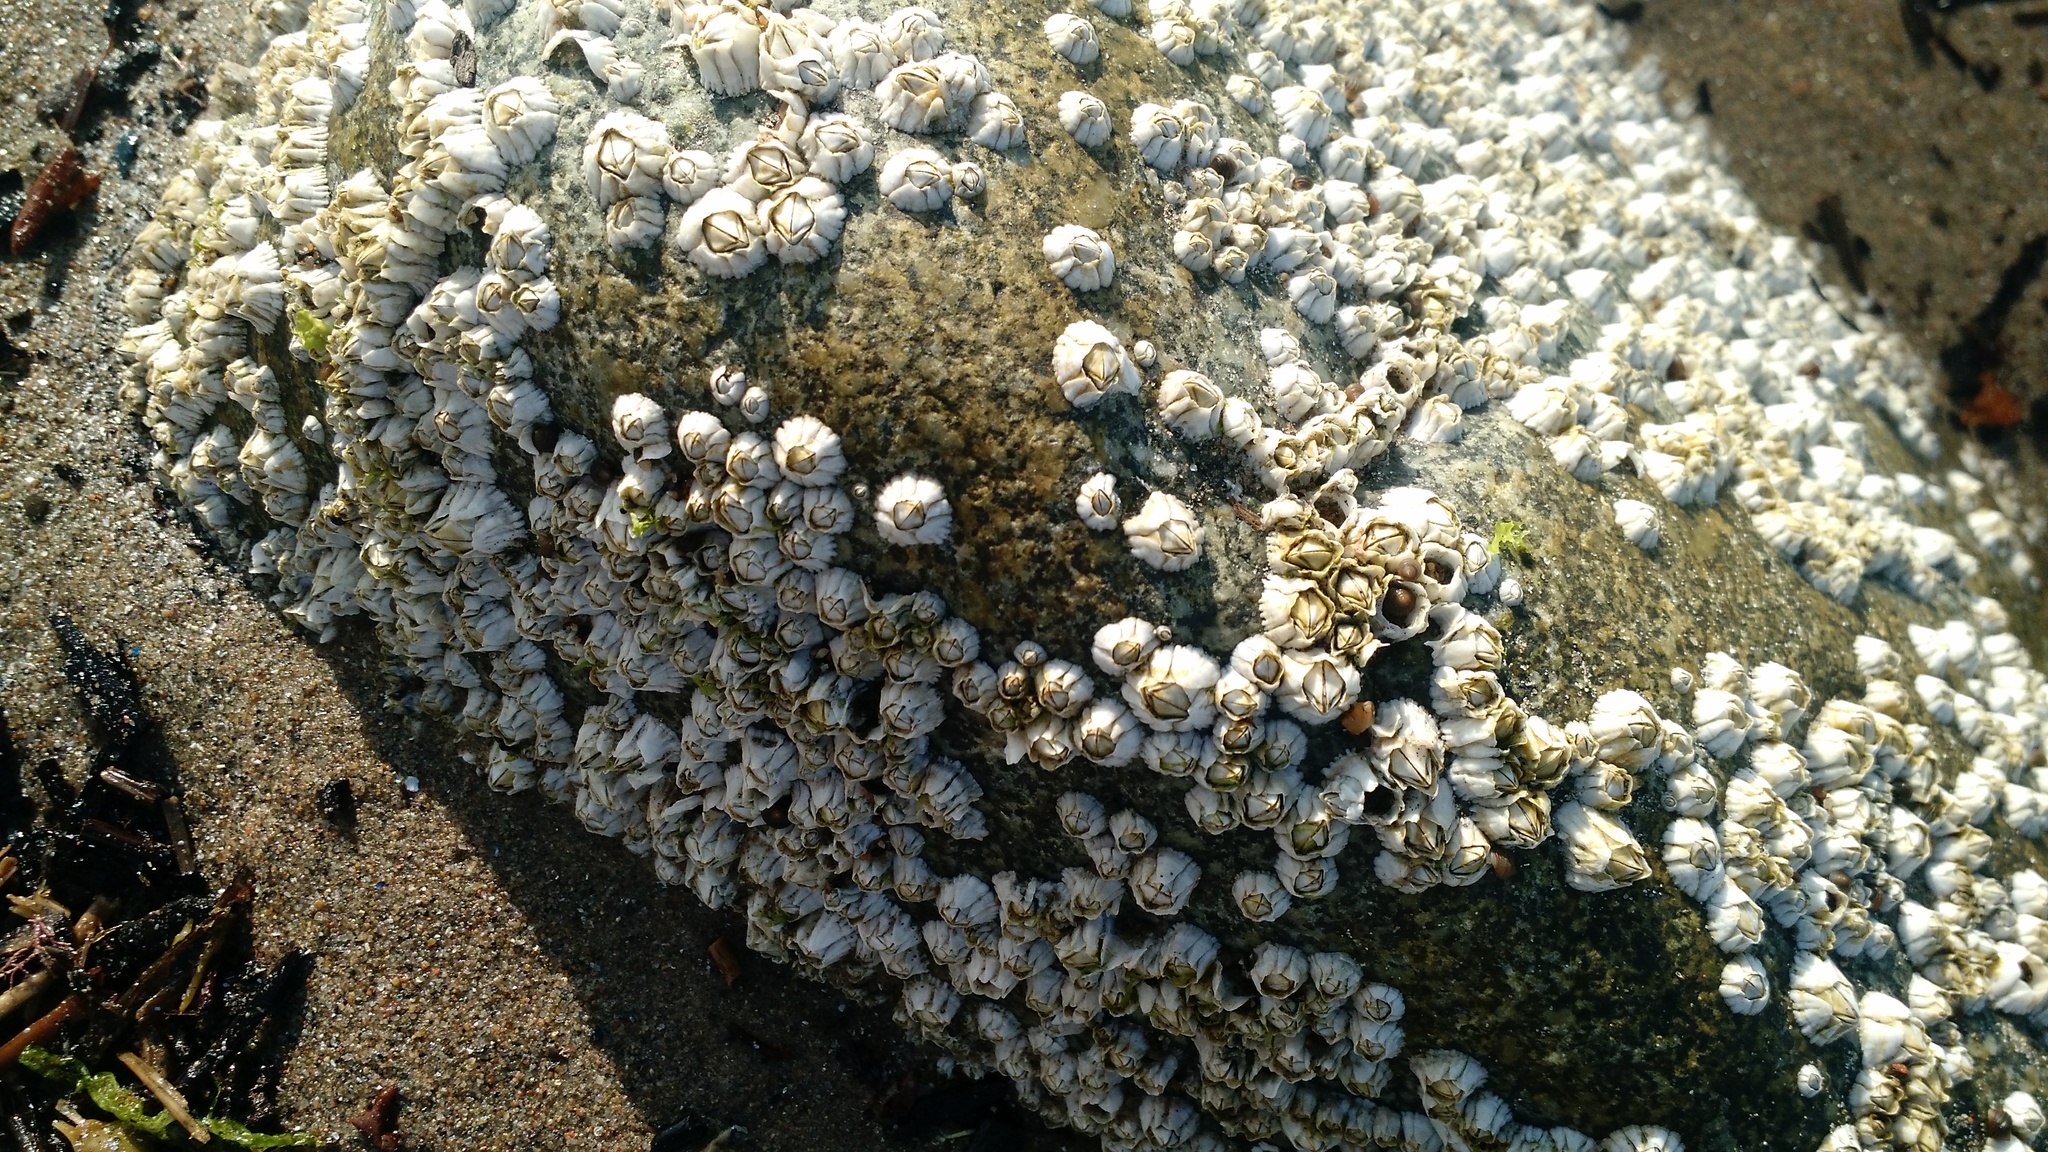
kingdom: Animalia
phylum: Arthropoda
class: Maxillopoda
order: Sessilia
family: Archaeobalanidae
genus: Semibalanus
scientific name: Semibalanus balanoides
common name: Acorn barnacle
